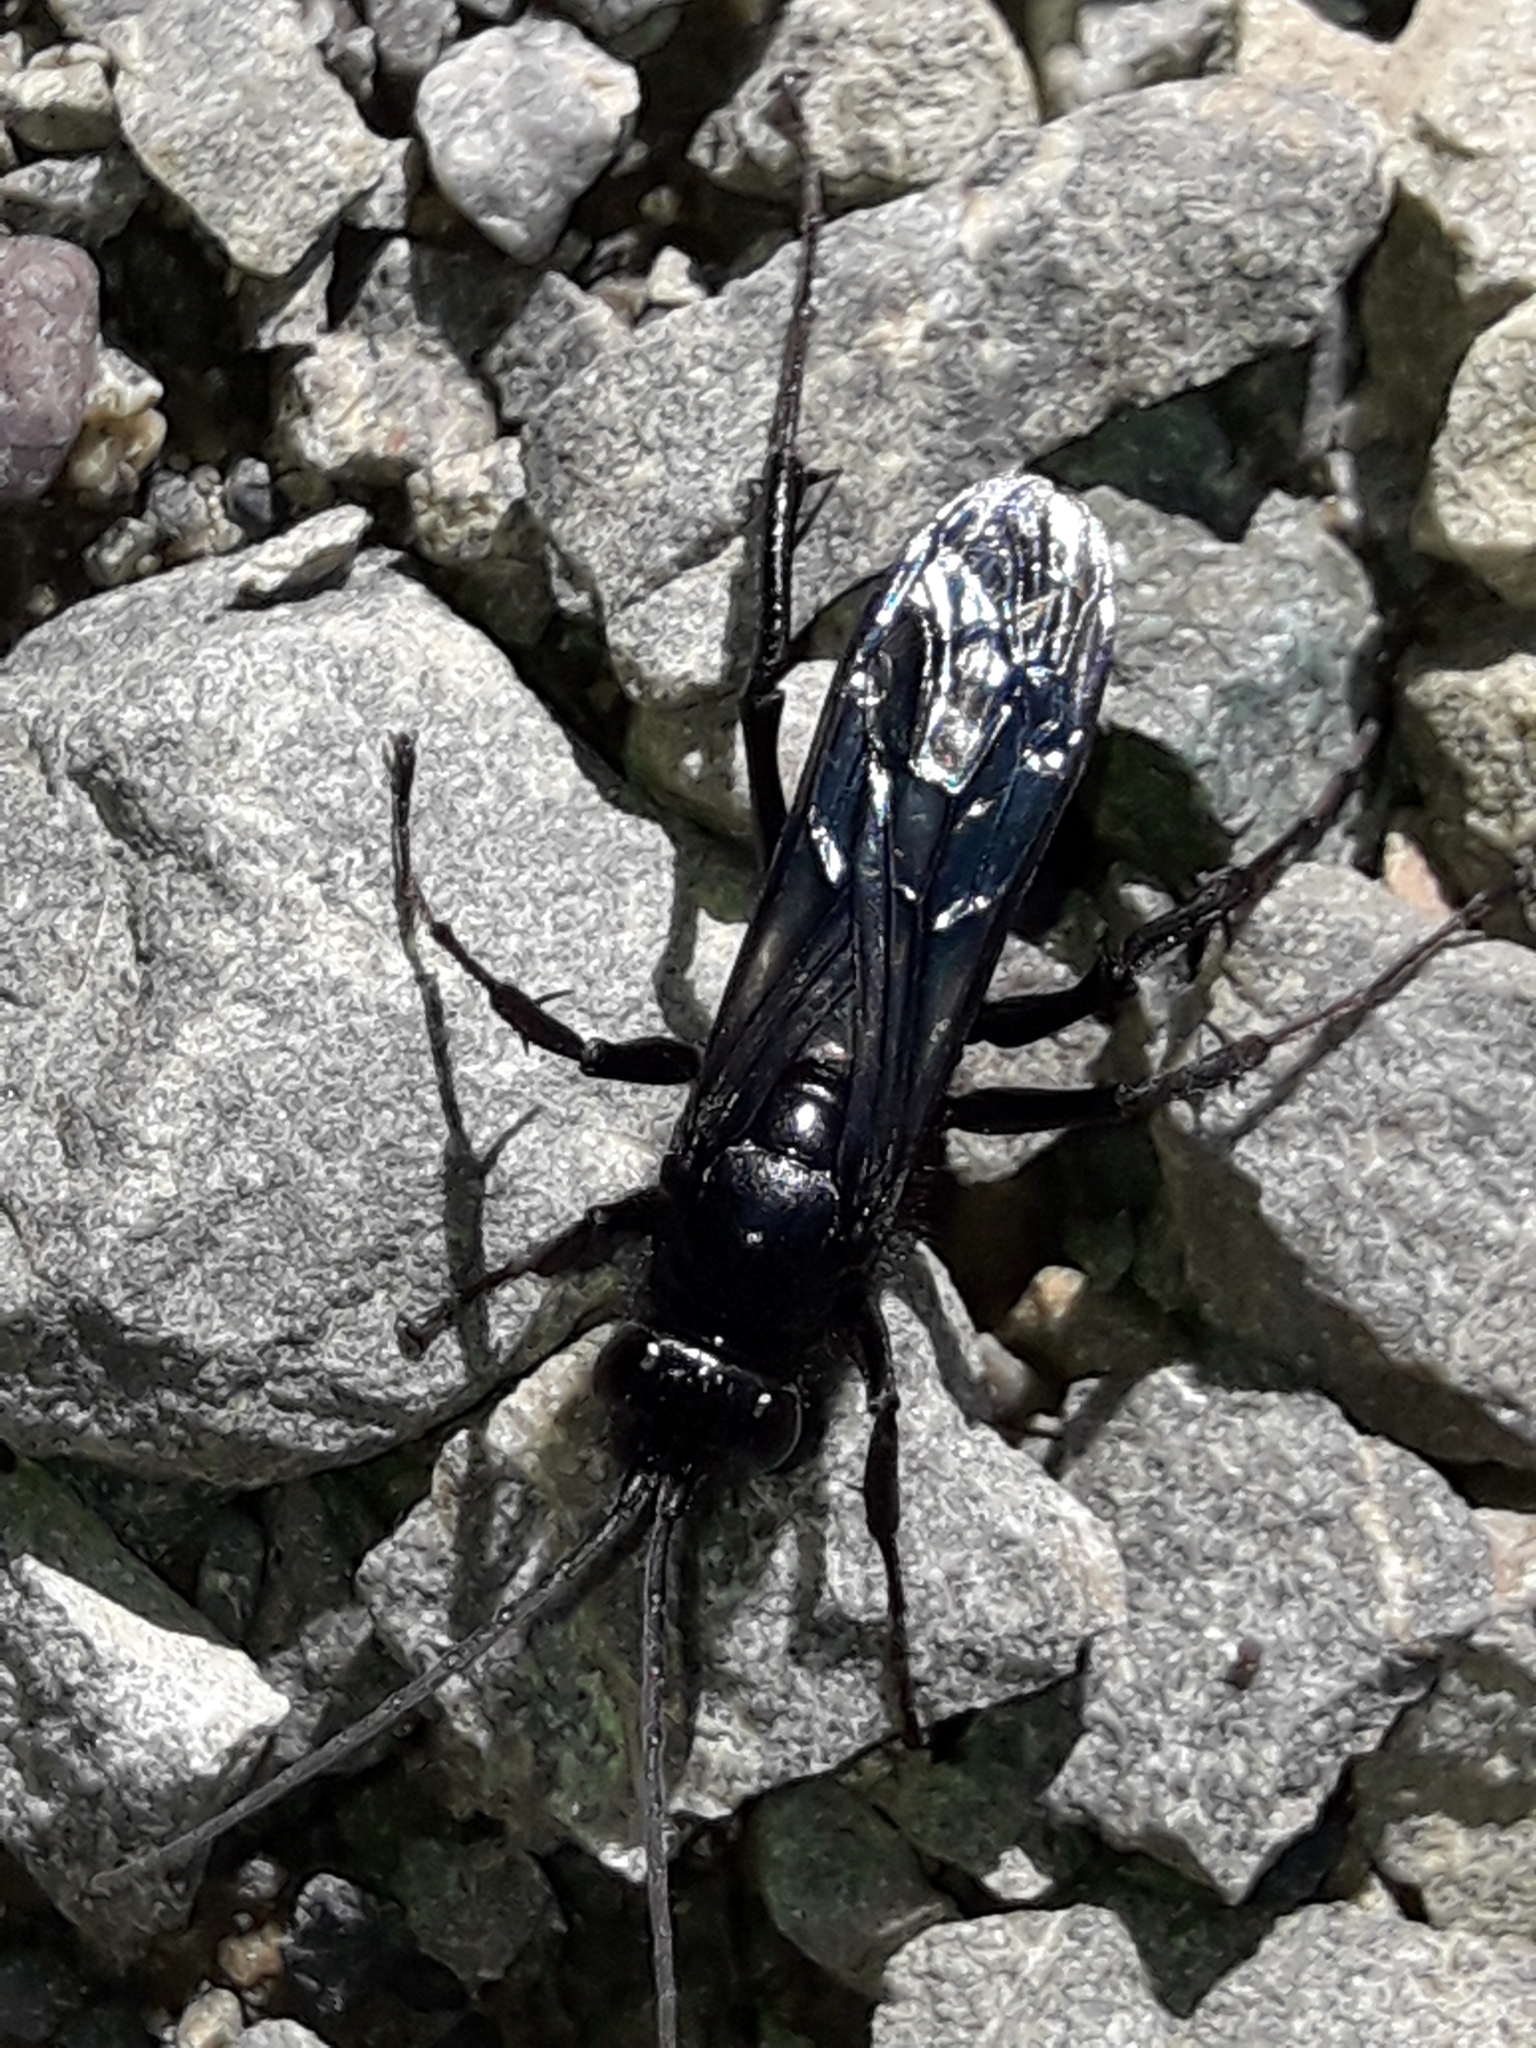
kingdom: Animalia
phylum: Arthropoda
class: Insecta
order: Hymenoptera
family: Pompilidae
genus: Priocnemis
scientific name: Priocnemis monachus
